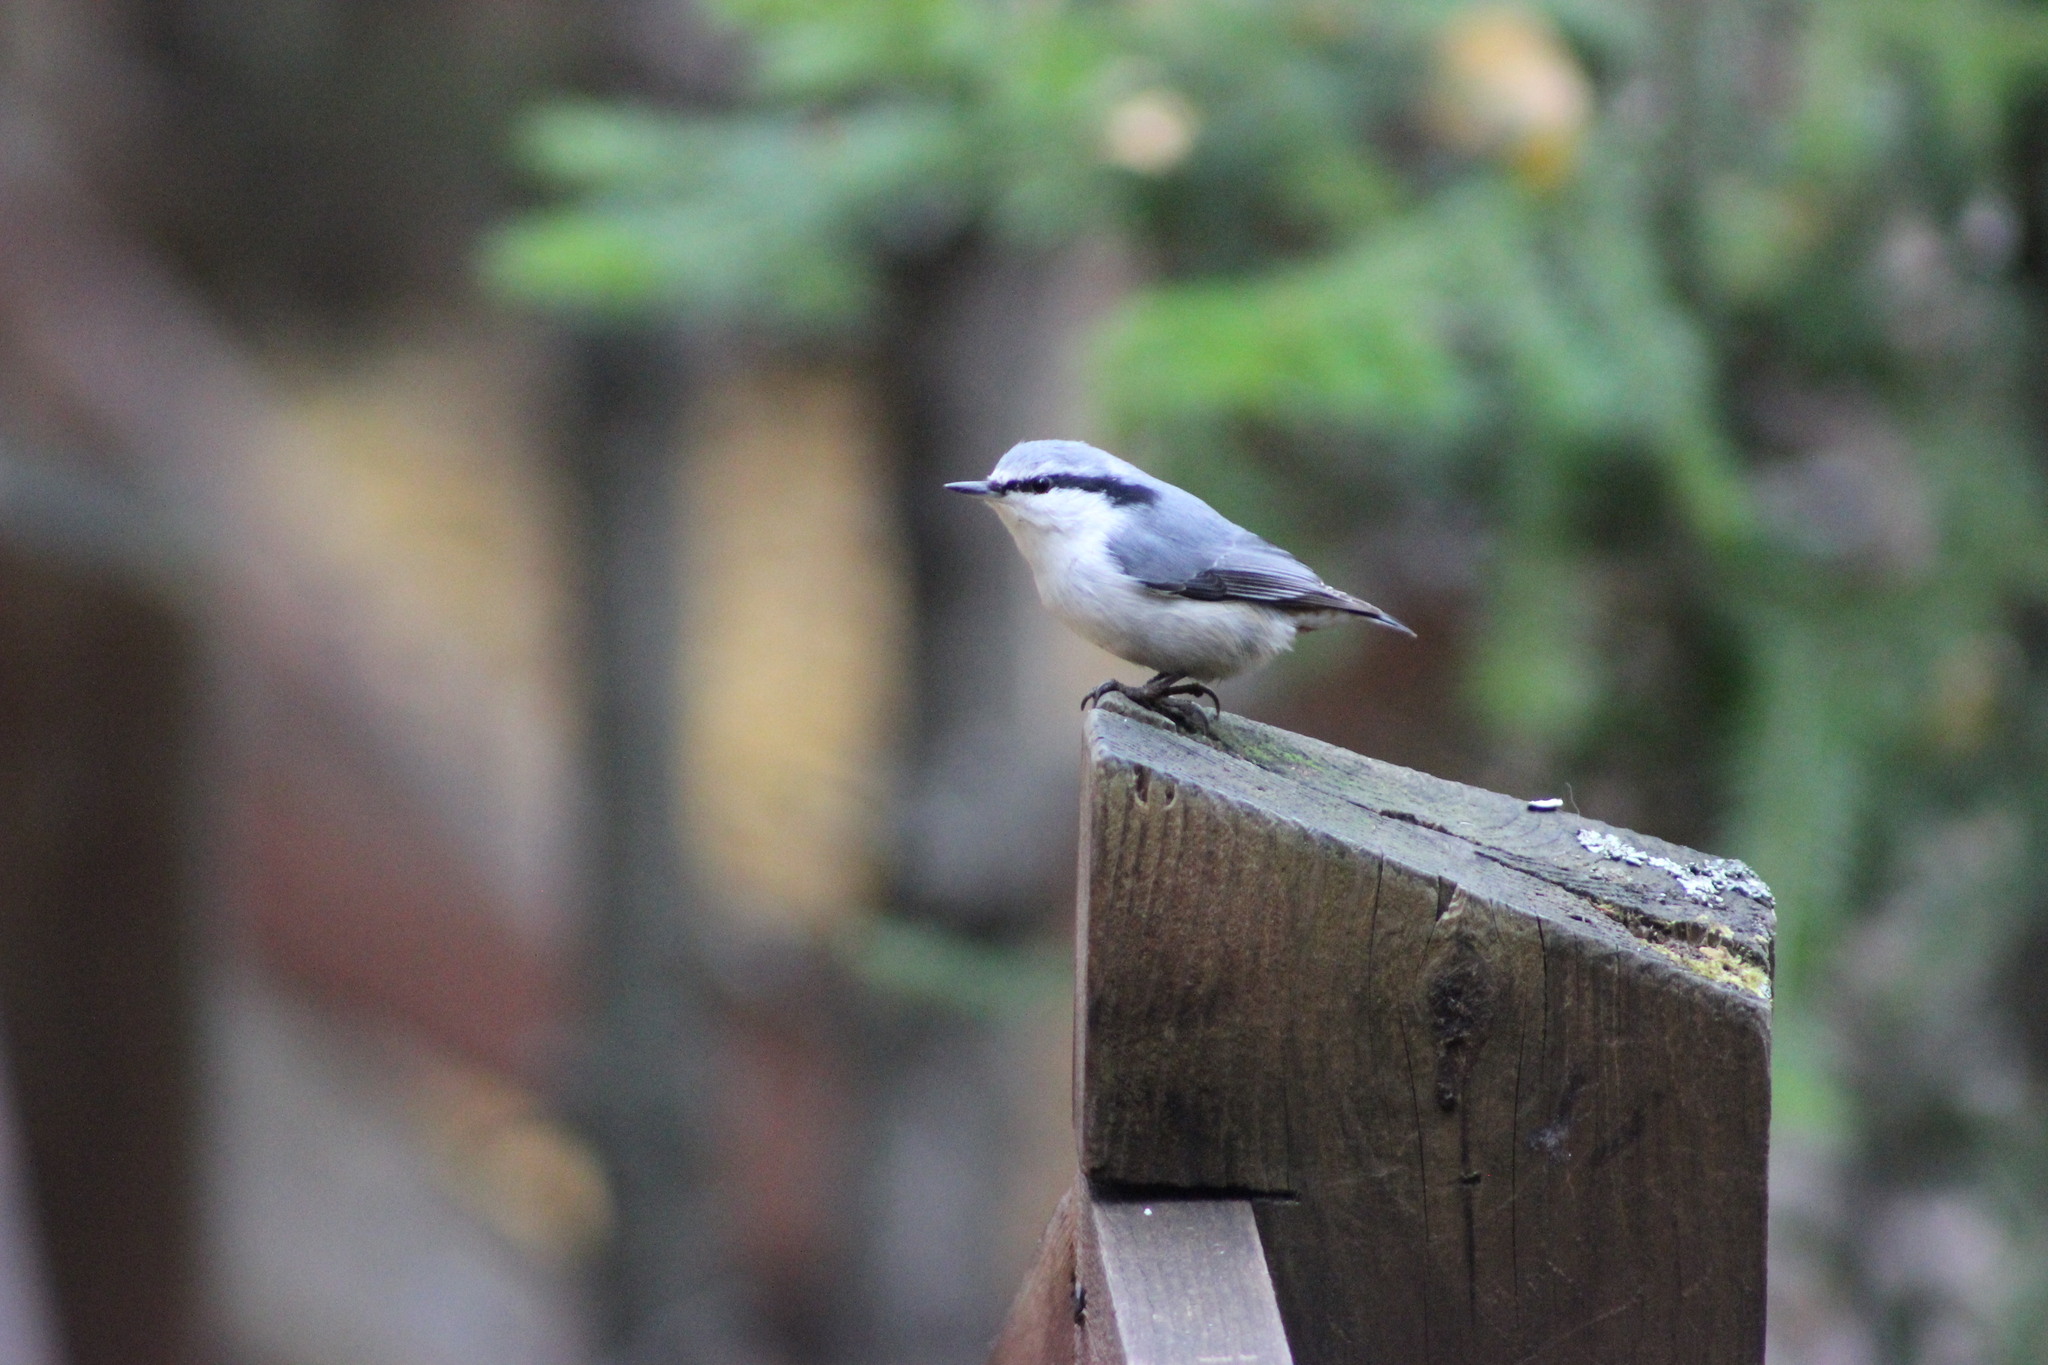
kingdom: Animalia
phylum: Chordata
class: Aves
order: Passeriformes
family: Sittidae
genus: Sitta
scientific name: Sitta europaea
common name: Eurasian nuthatch
